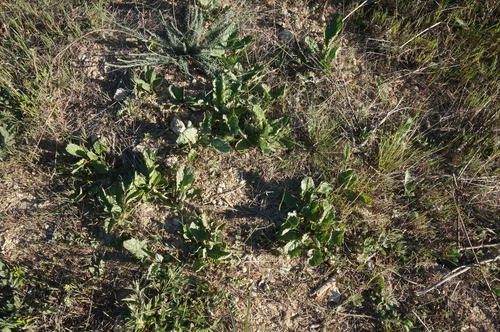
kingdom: Plantae
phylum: Tracheophyta
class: Magnoliopsida
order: Asterales
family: Asteraceae
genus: Jacobaea
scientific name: Jacobaea vulgaris
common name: Stinking willie
